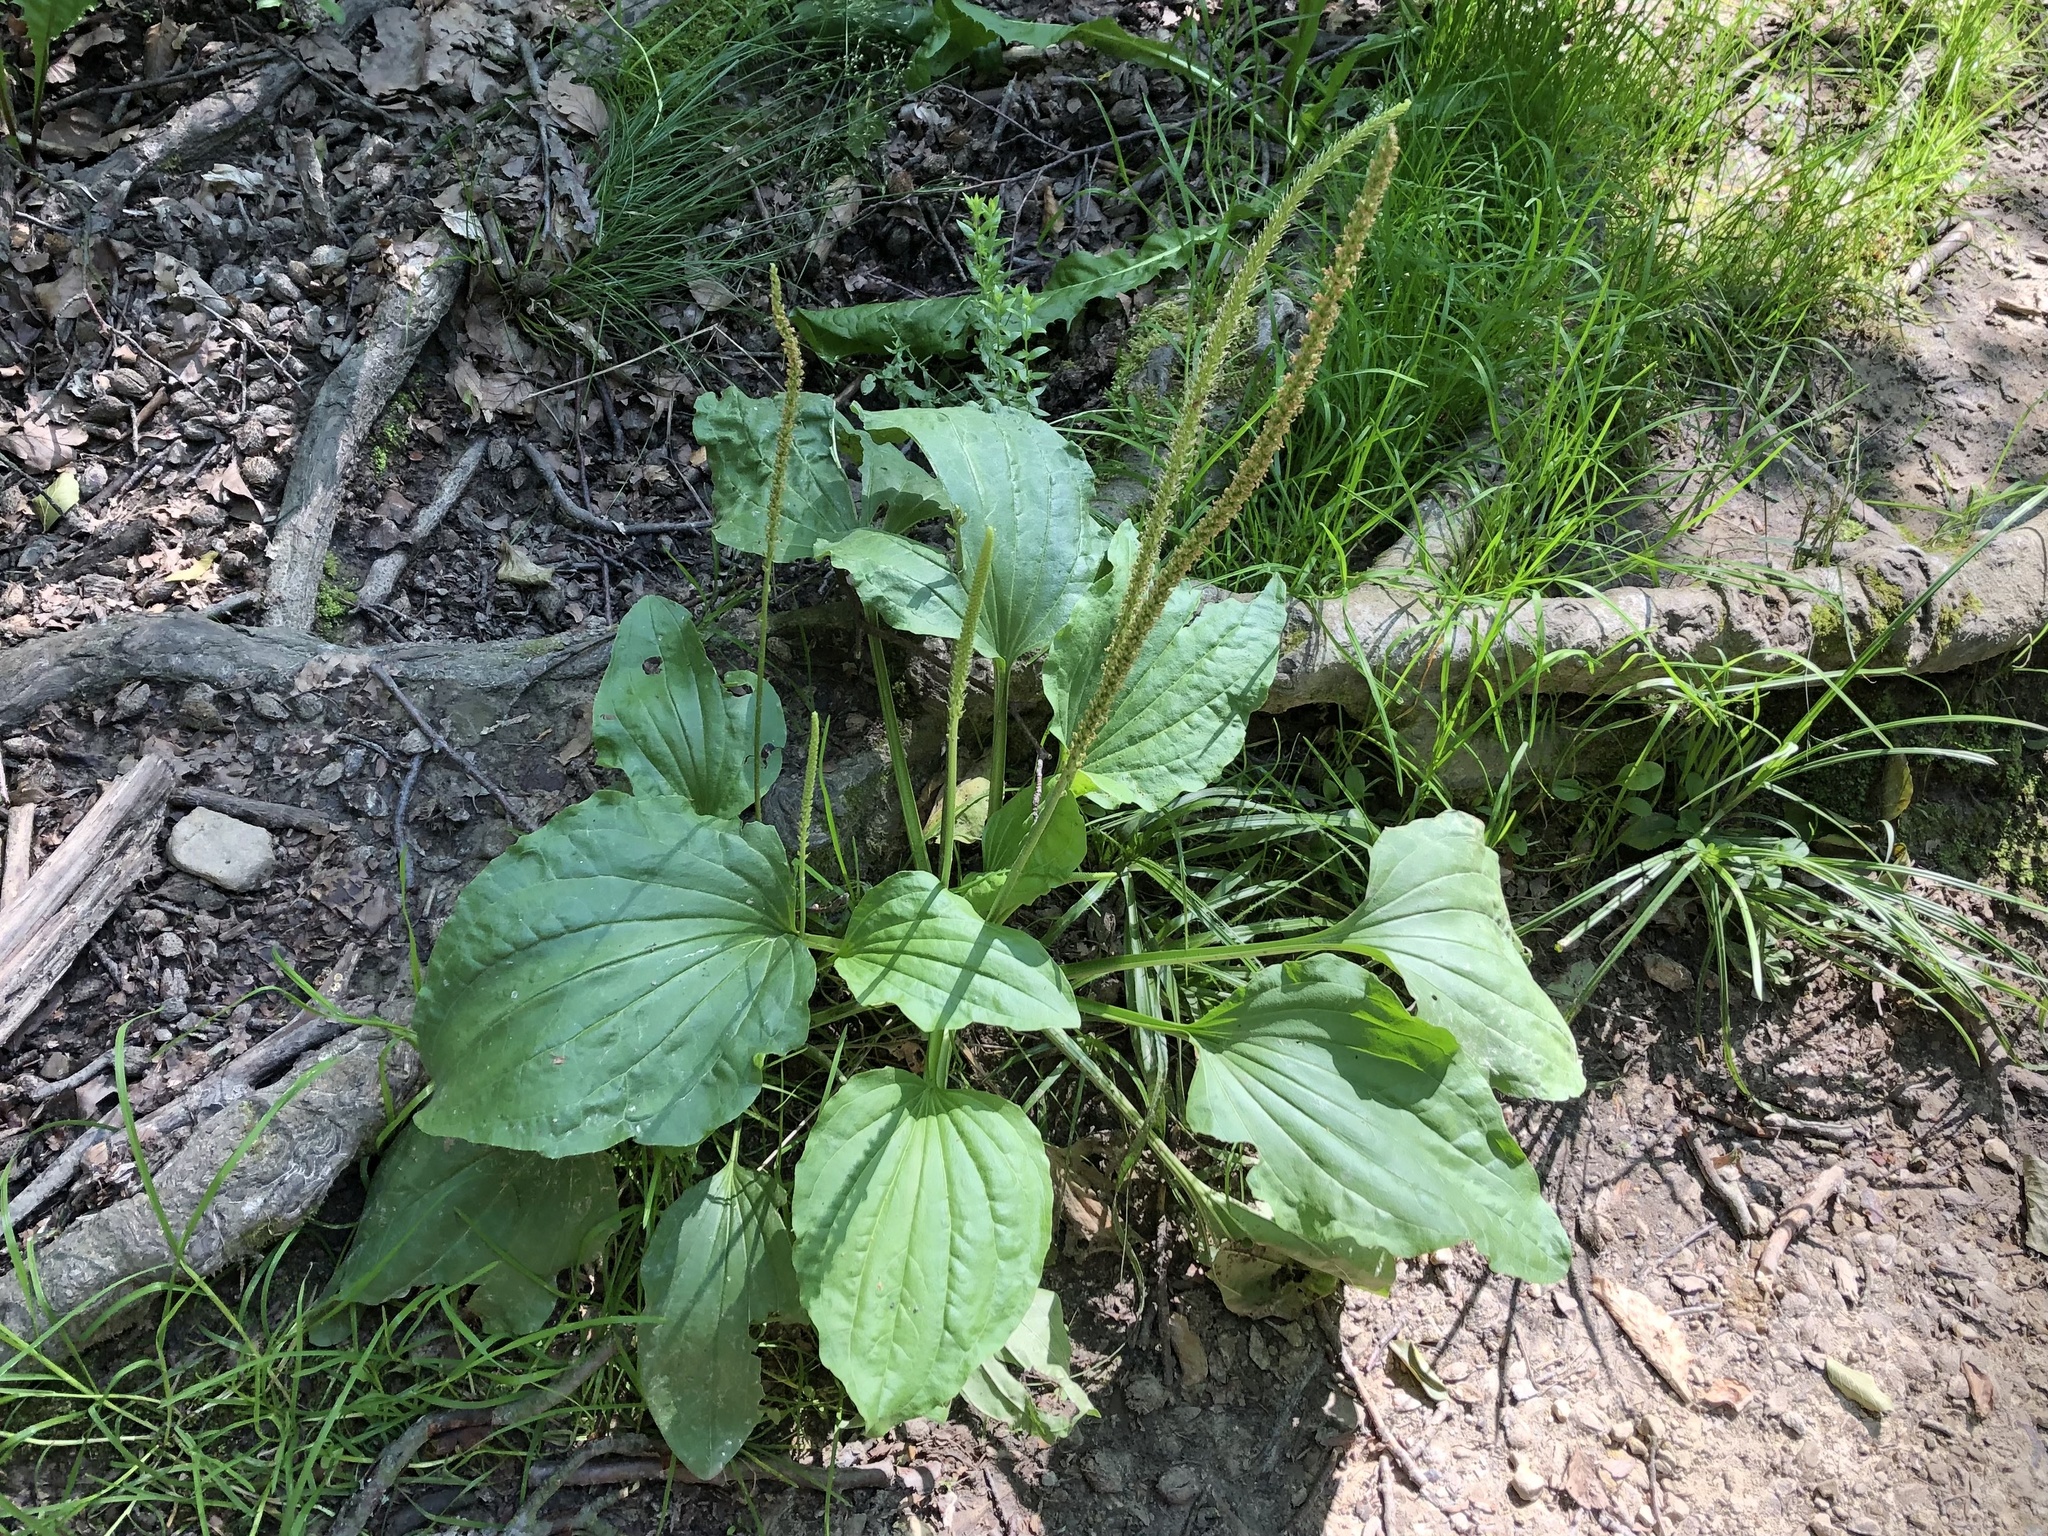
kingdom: Plantae
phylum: Tracheophyta
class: Magnoliopsida
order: Lamiales
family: Plantaginaceae
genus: Plantago
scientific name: Plantago major
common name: Common plantain
